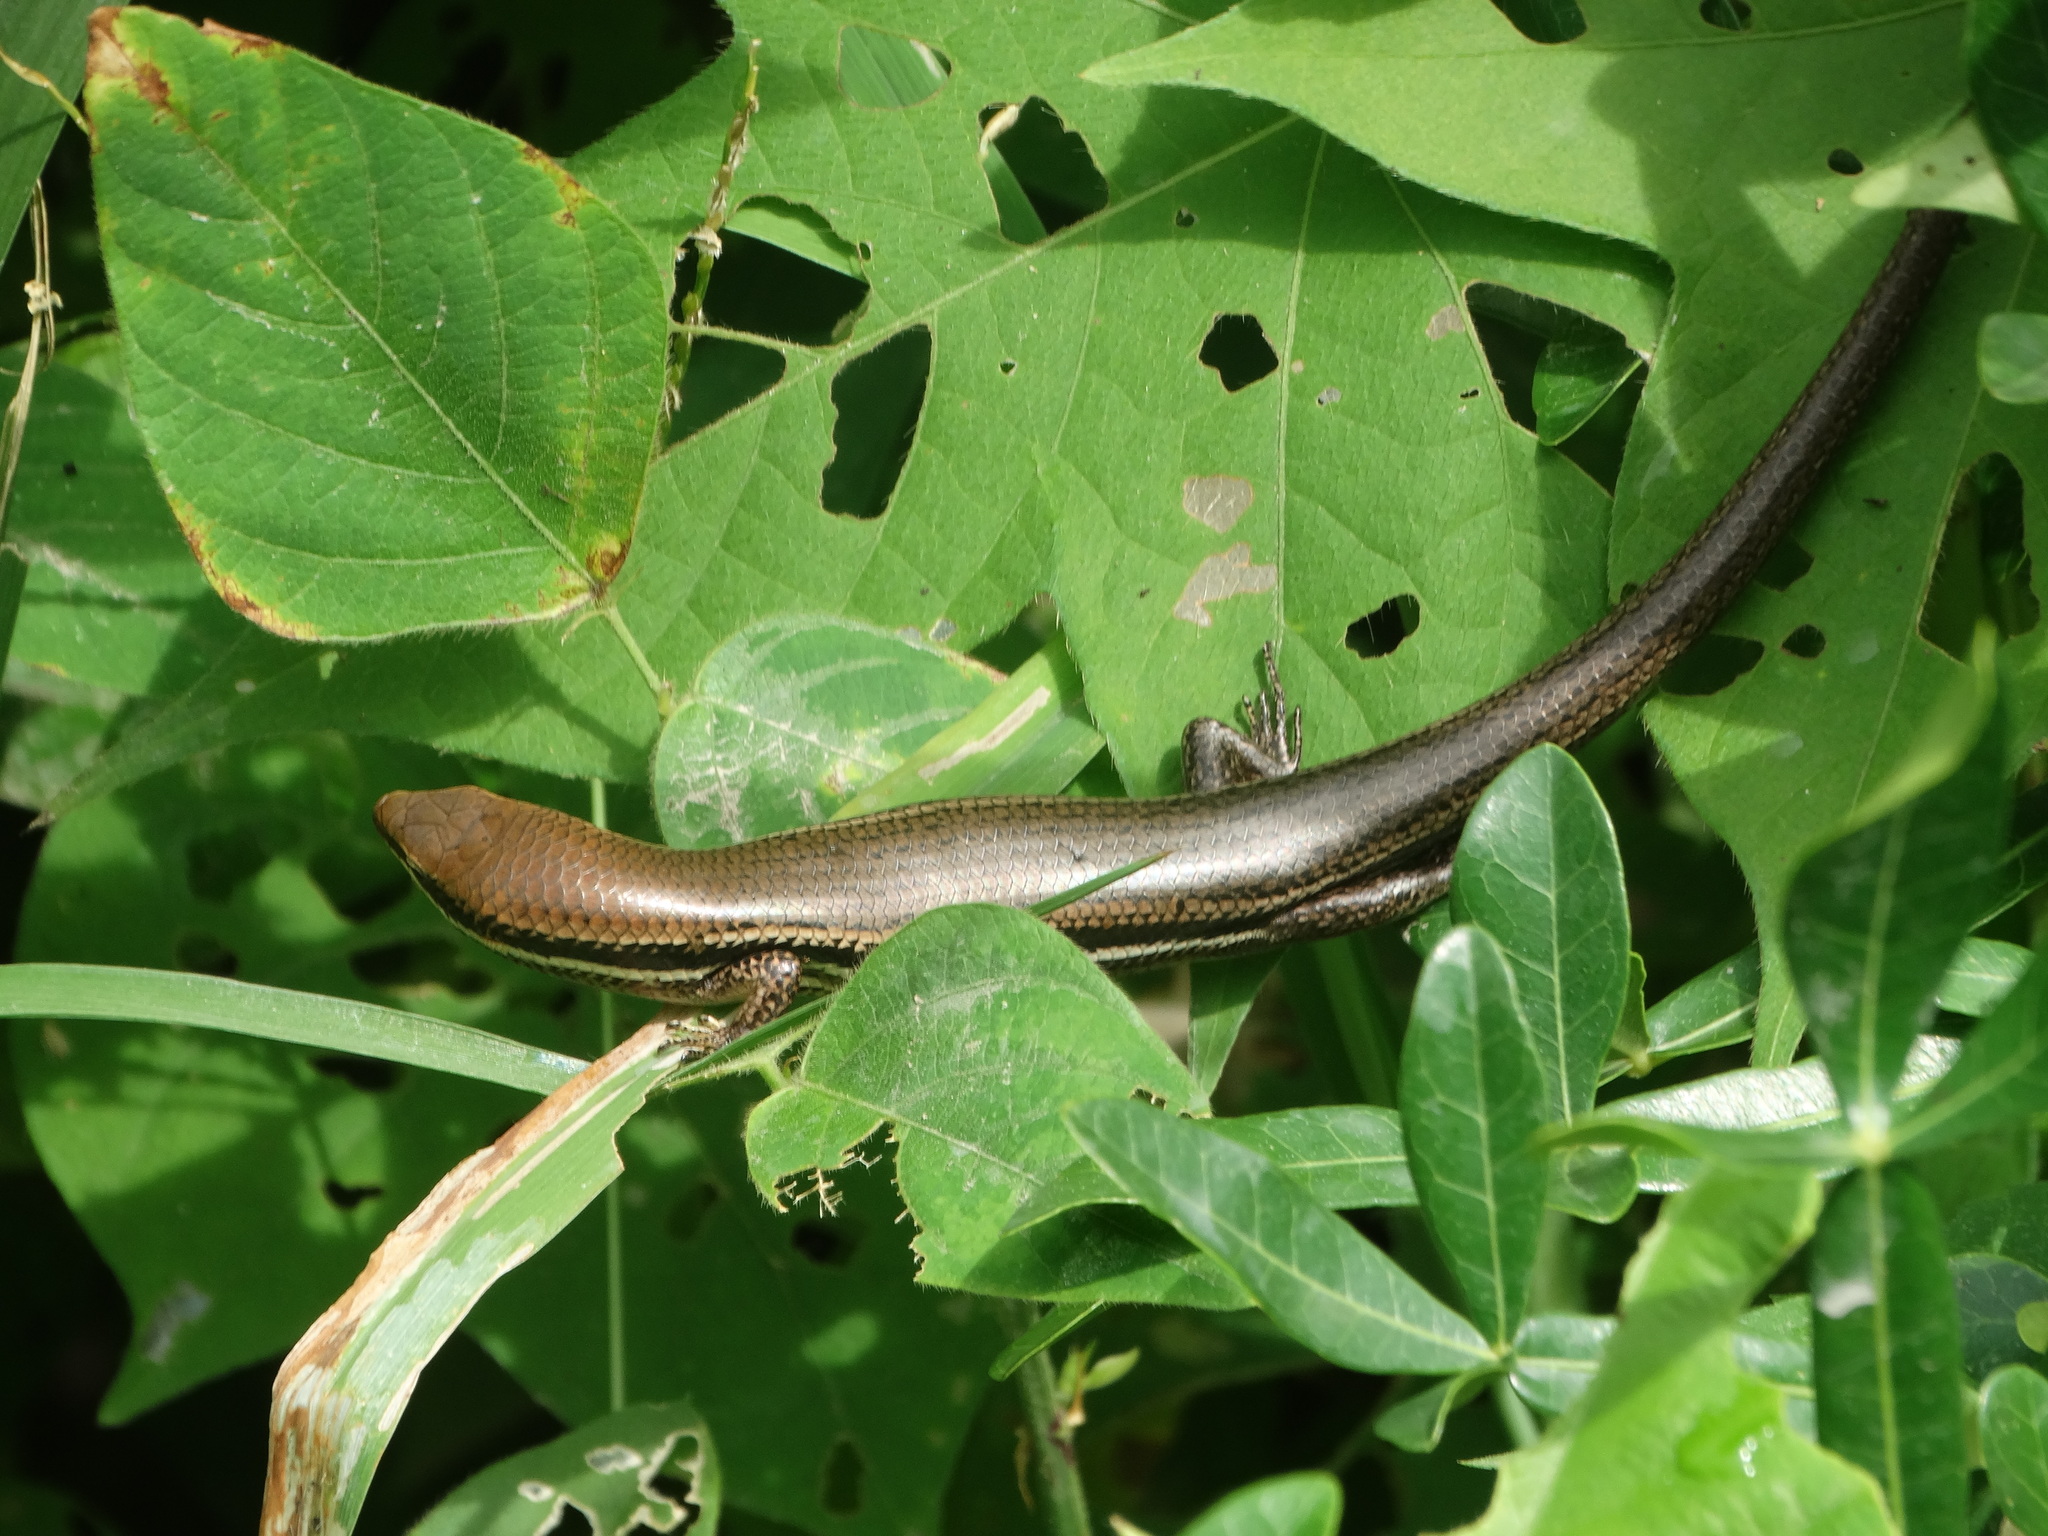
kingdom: Animalia
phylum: Chordata
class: Squamata
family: Scincidae
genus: Marisora
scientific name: Marisora syntoma
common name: Tehuantepec skink
